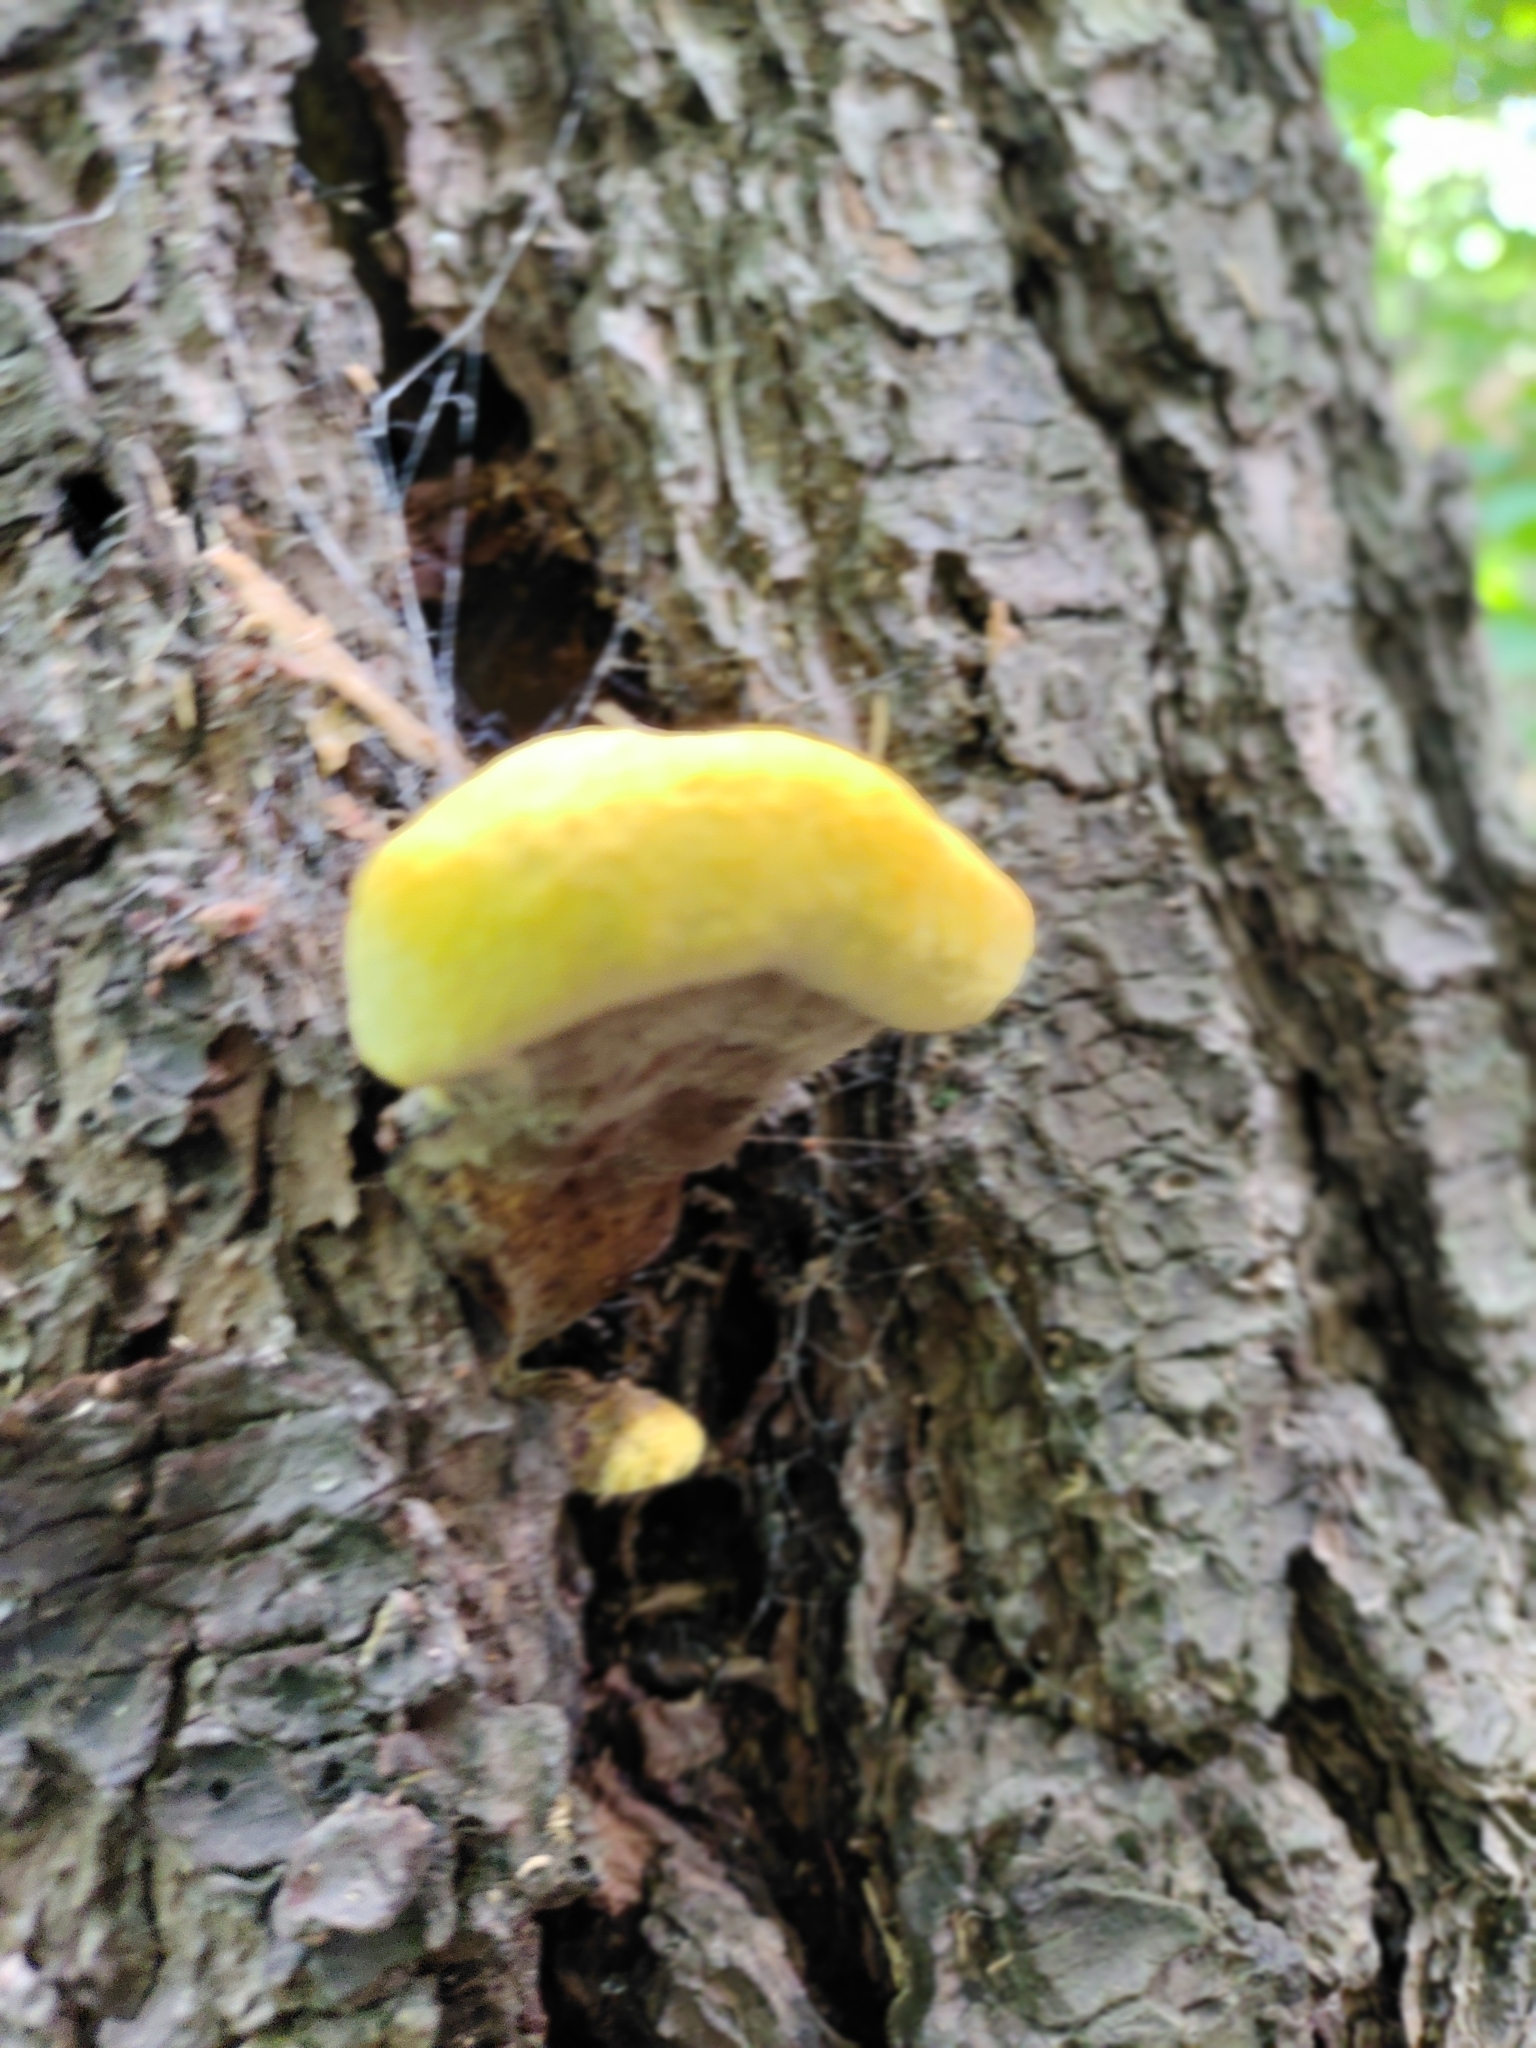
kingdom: Fungi
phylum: Basidiomycota
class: Agaricomycetes
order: Polyporales
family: Laetiporaceae
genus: Phaeolus
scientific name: Phaeolus schweinitzii
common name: Dyer's mazegill
